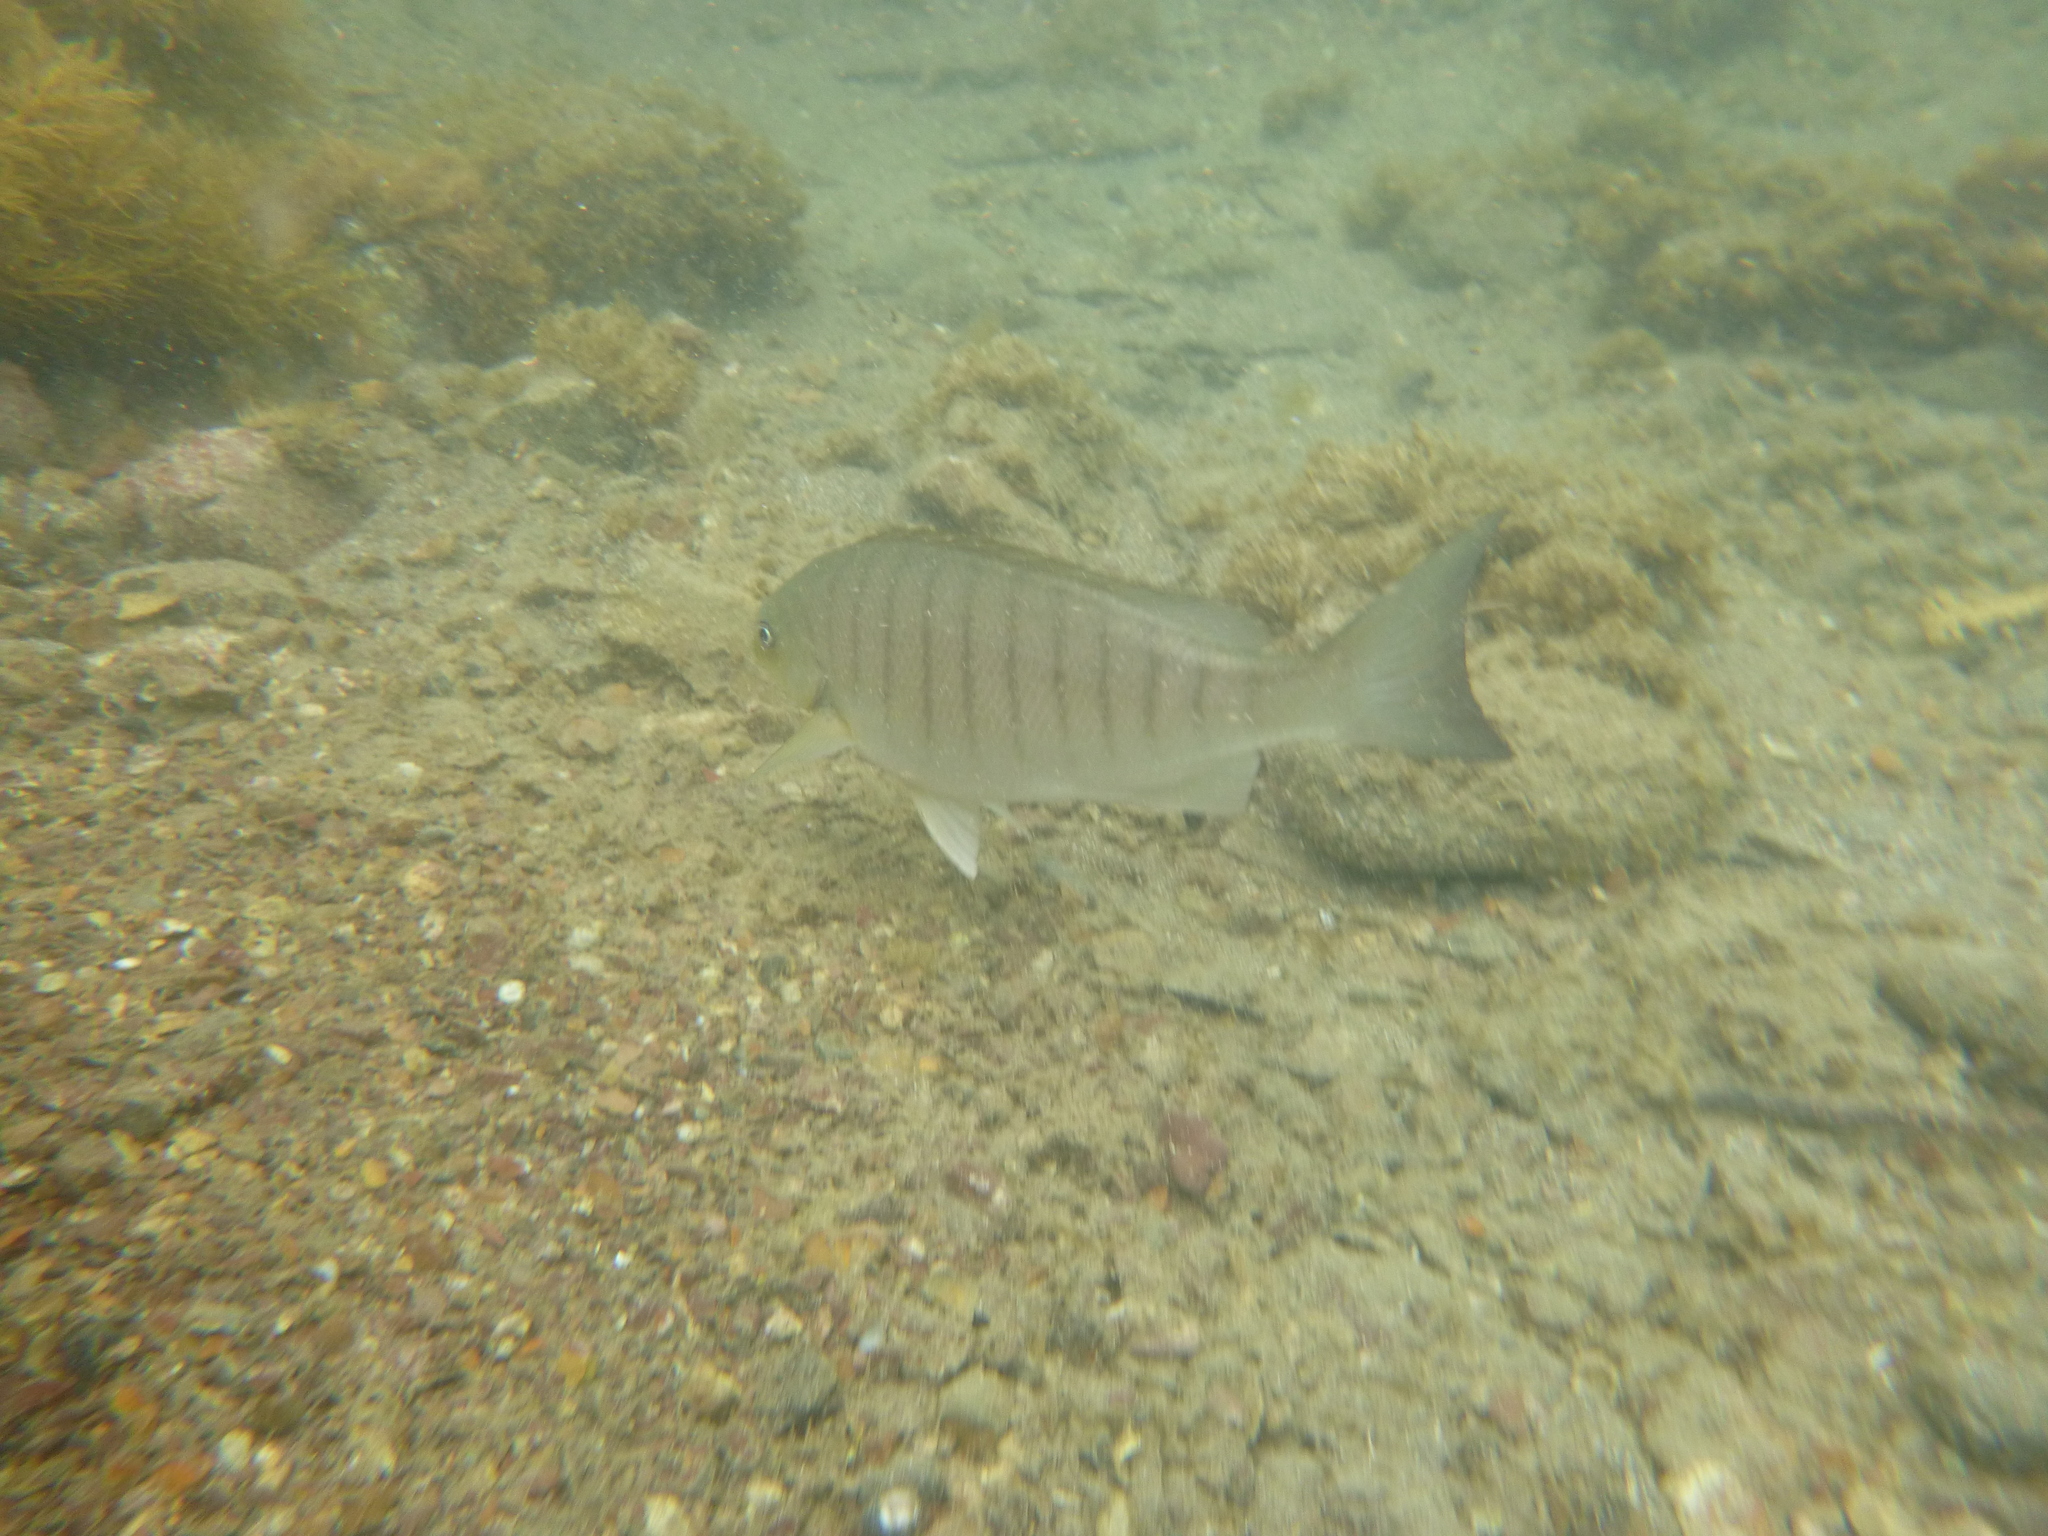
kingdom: Animalia
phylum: Chordata
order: Perciformes
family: Kyphosidae
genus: Girella
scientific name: Girella tricuspidata
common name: Parore
